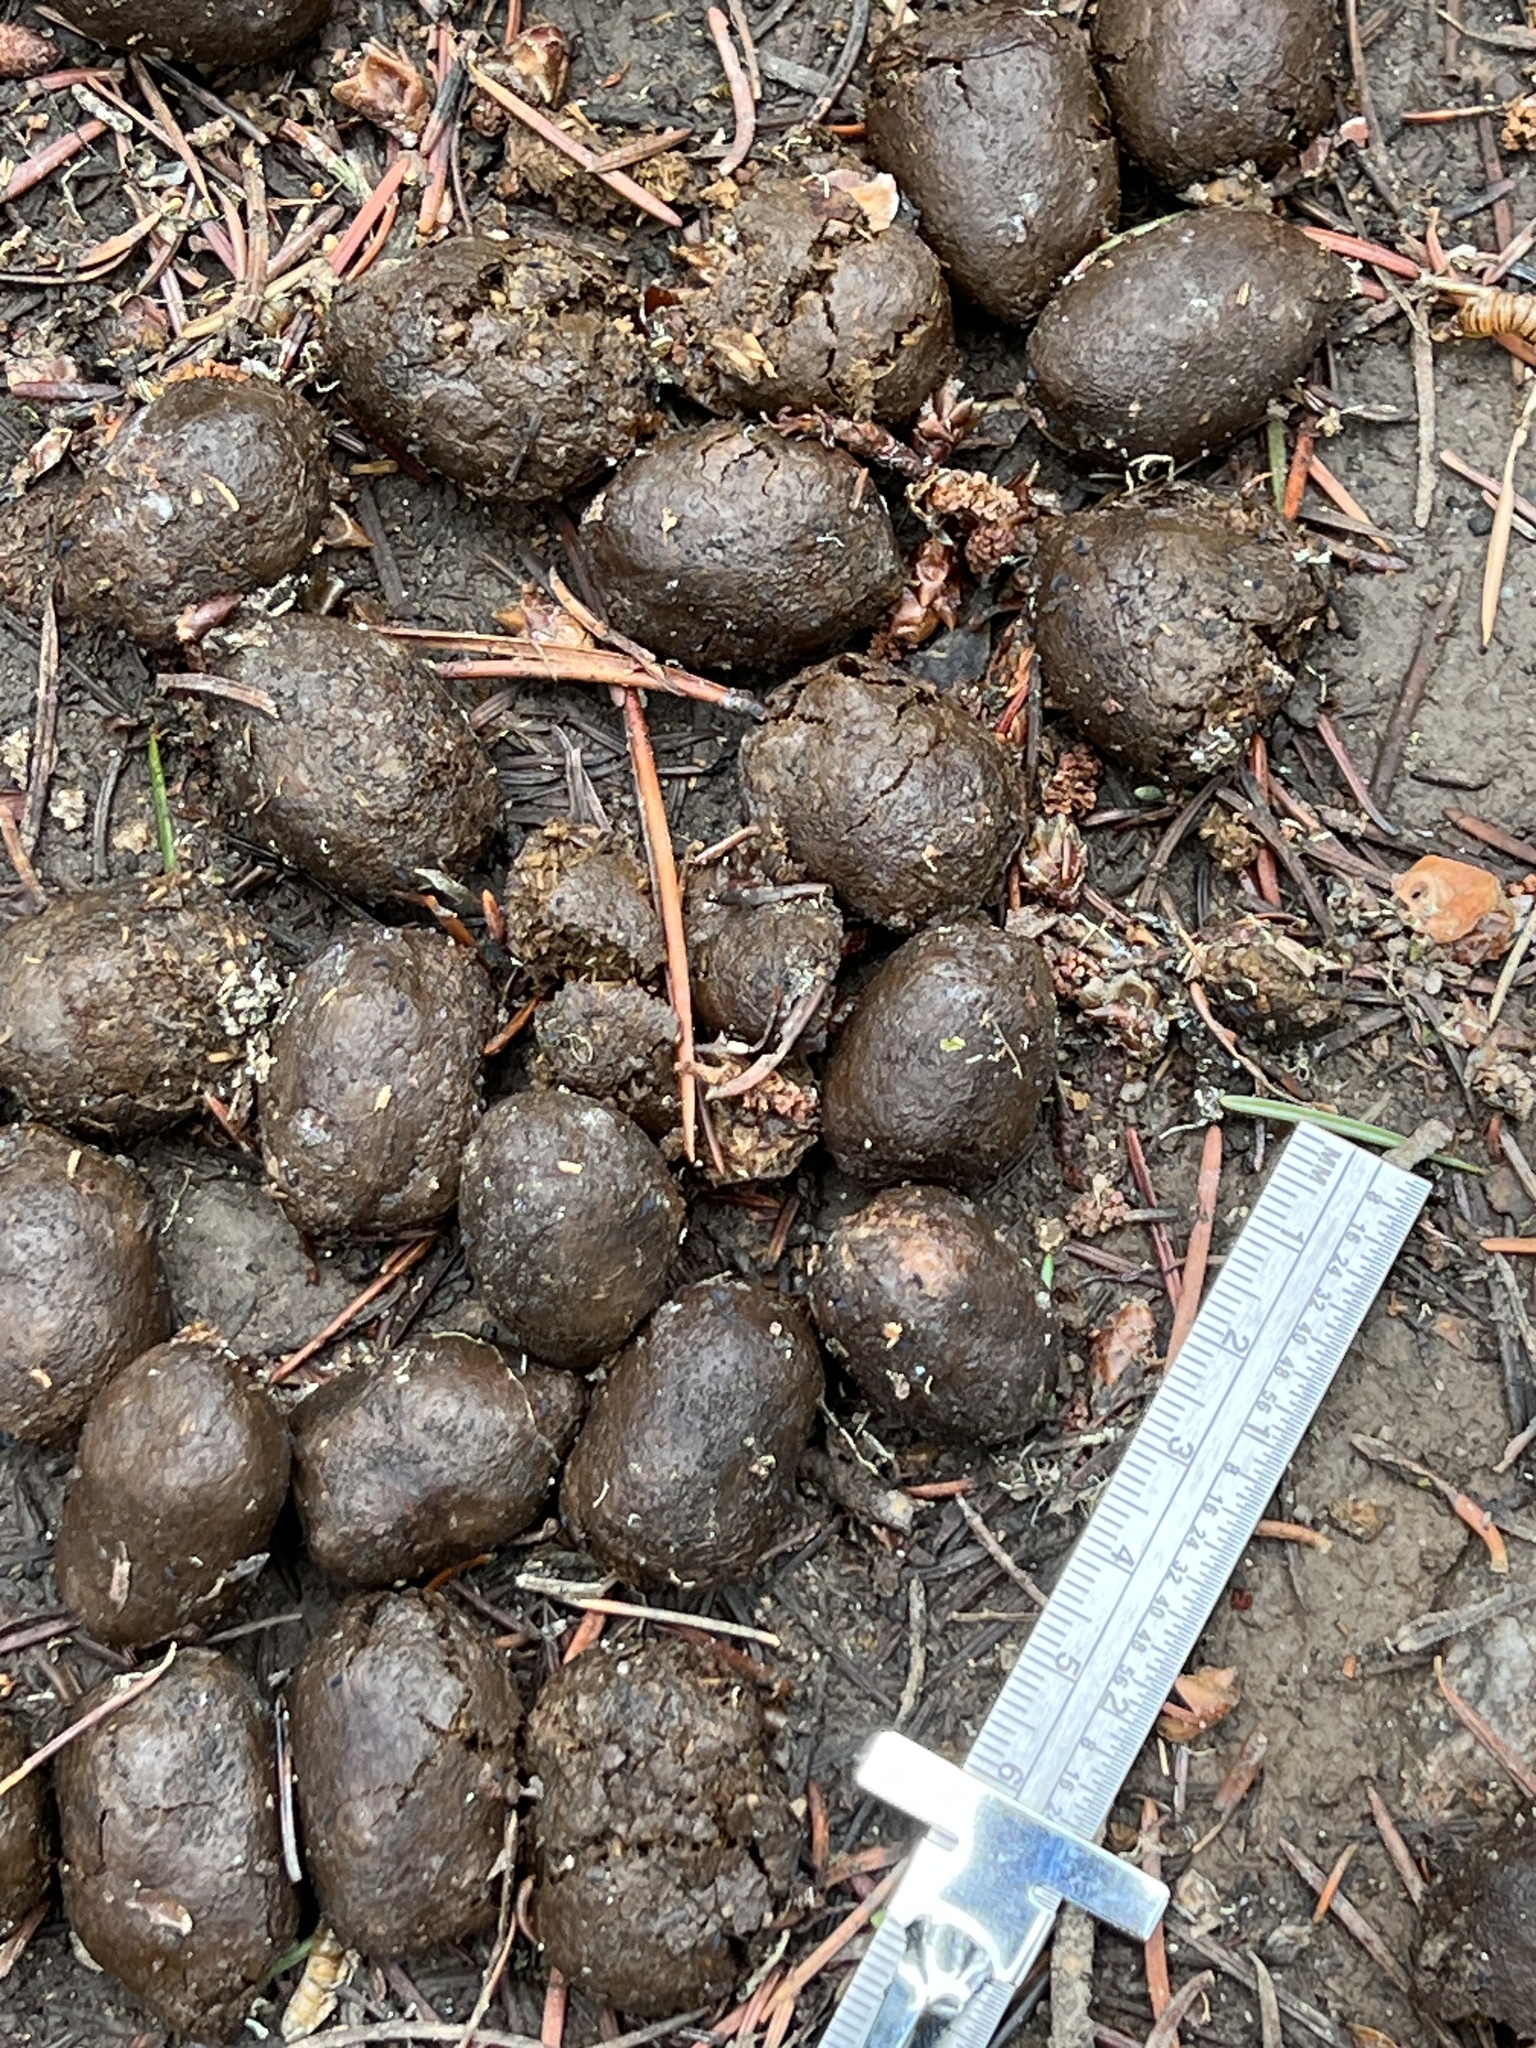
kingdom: Animalia
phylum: Chordata
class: Mammalia
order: Artiodactyla
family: Cervidae
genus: Alces
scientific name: Alces alces
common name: Moose
